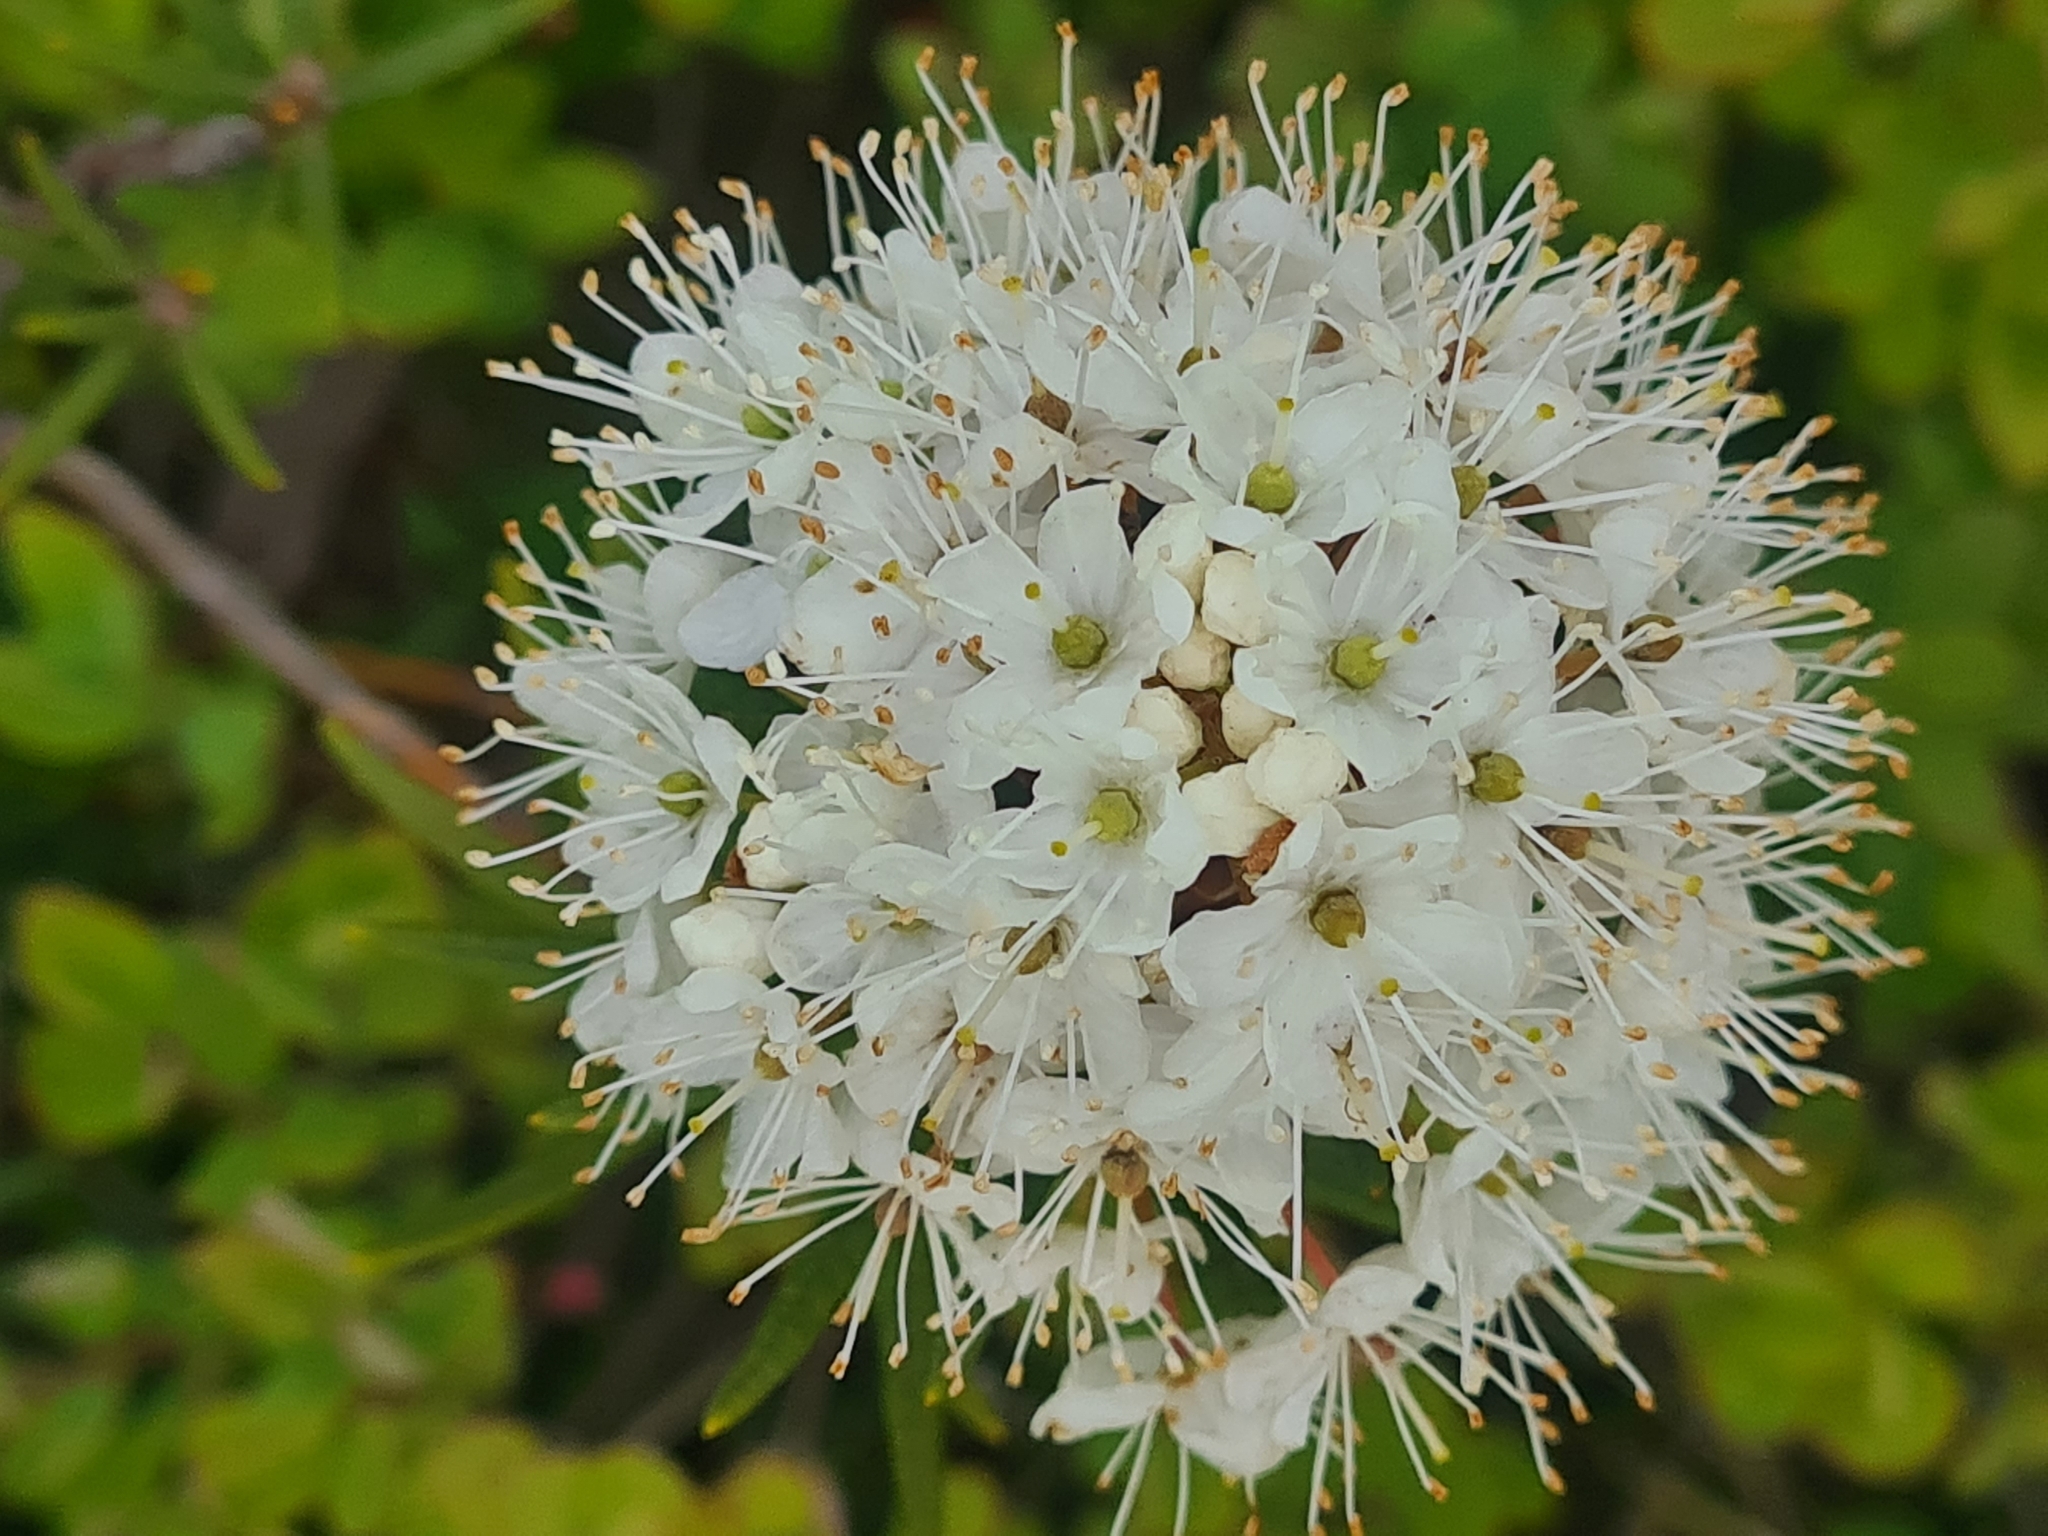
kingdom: Plantae
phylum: Tracheophyta
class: Magnoliopsida
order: Ericales
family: Ericaceae
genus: Rhododendron
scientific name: Rhododendron tomentosum
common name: Marsh labrador tea
